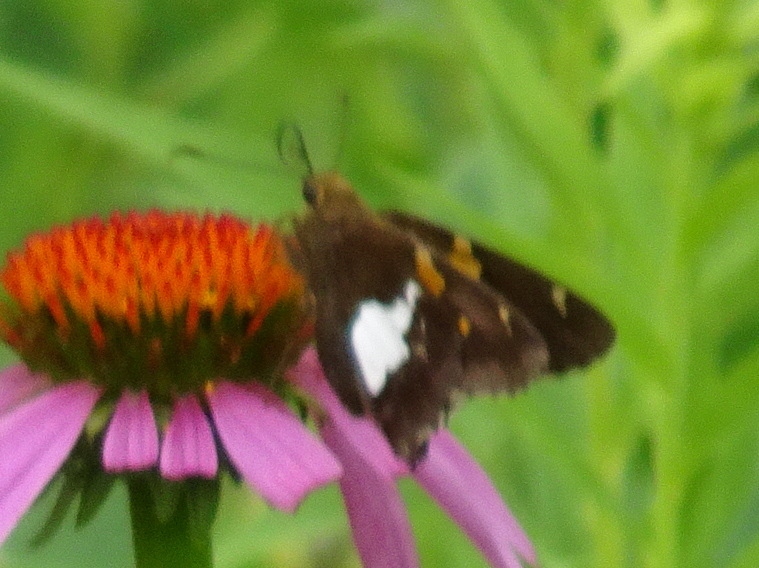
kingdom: Animalia
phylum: Arthropoda
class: Insecta
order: Lepidoptera
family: Hesperiidae
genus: Epargyreus
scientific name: Epargyreus clarus
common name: Silver-spotted skipper
